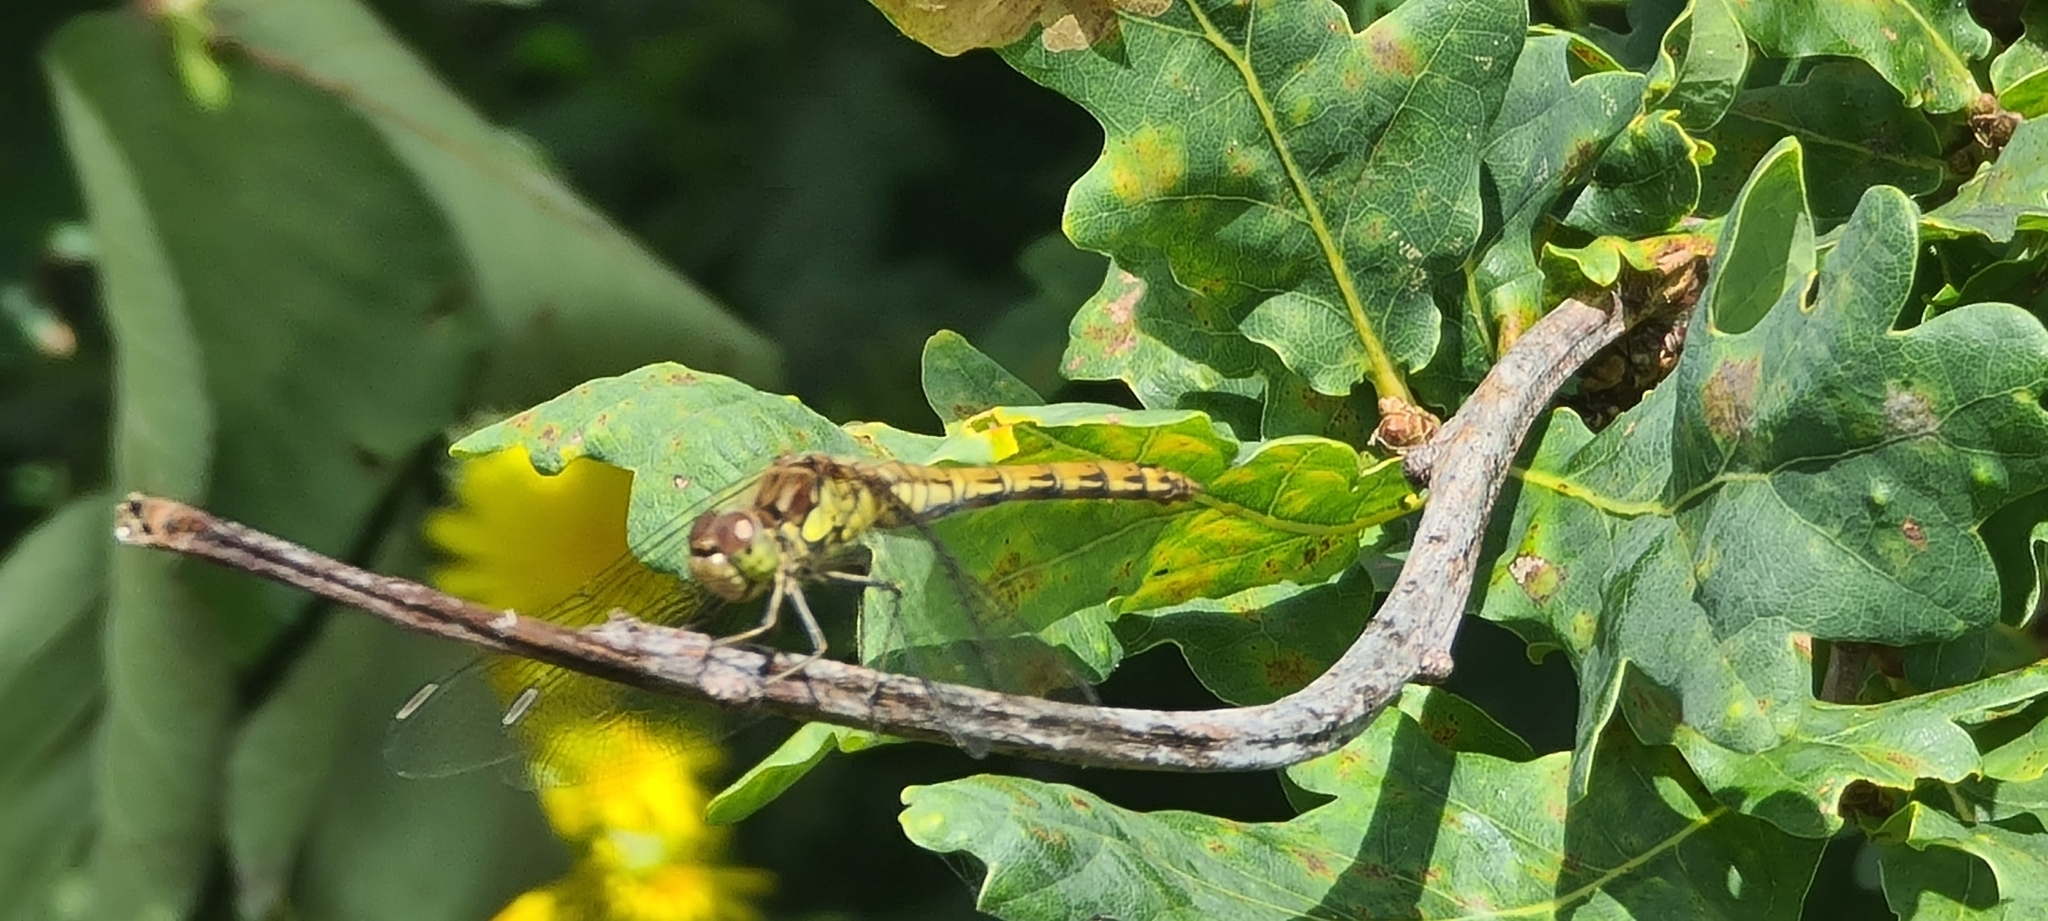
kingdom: Animalia
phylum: Arthropoda
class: Insecta
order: Odonata
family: Libellulidae
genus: Sympetrum
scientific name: Sympetrum striolatum
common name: Common darter
